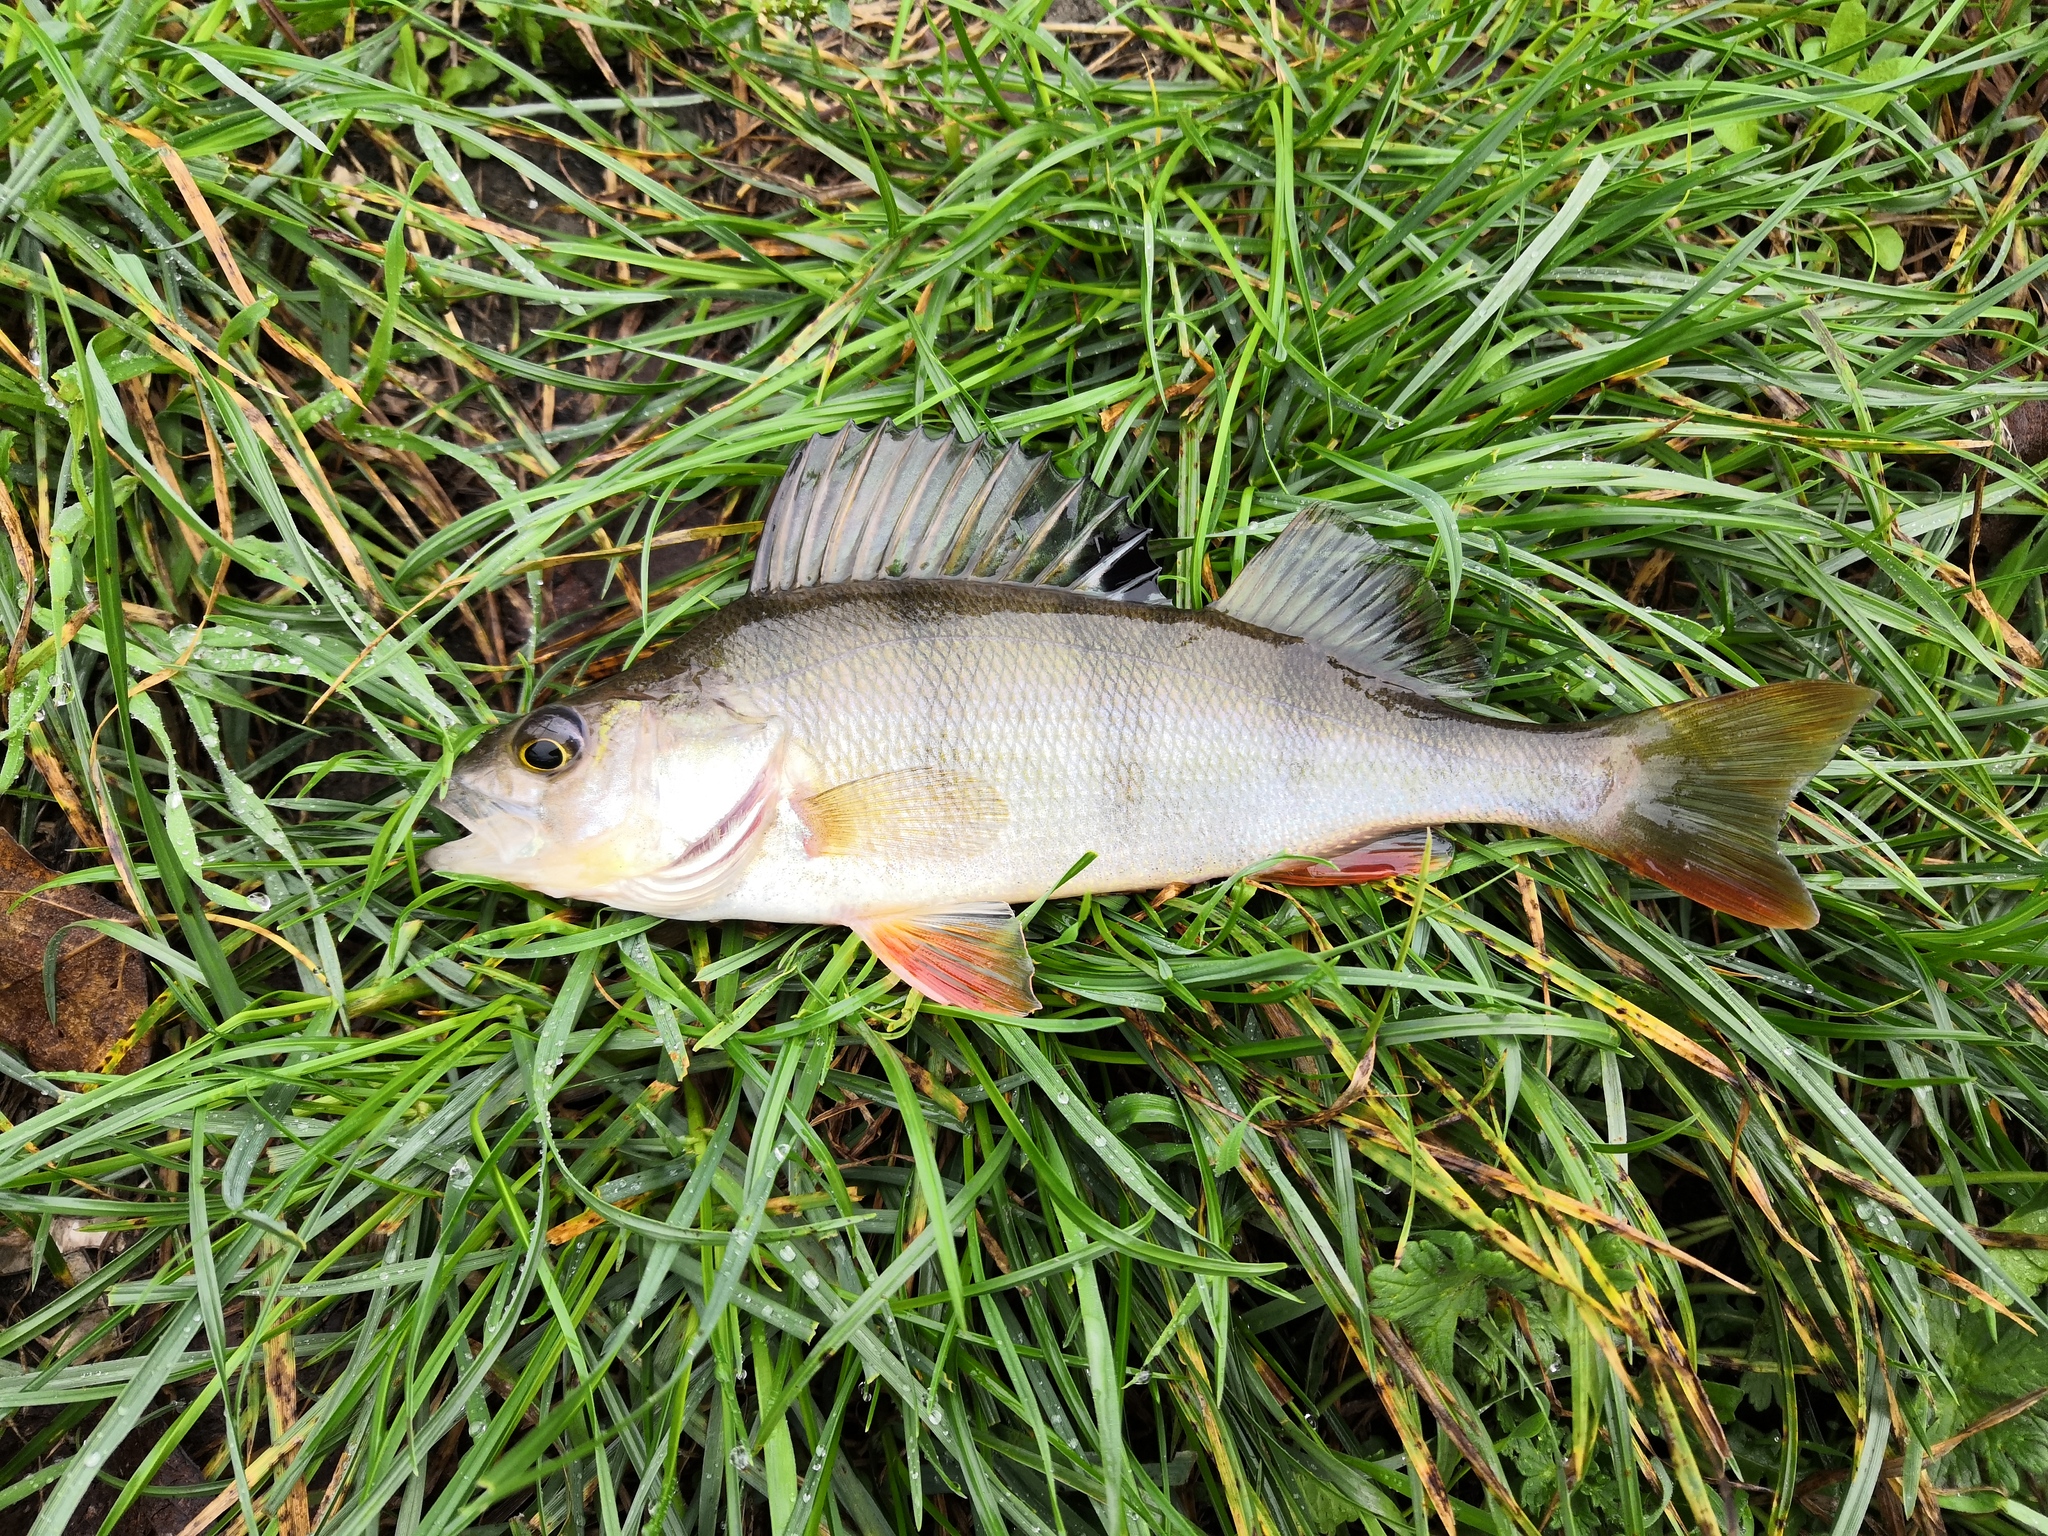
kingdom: Animalia
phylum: Chordata
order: Perciformes
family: Percidae
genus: Perca
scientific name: Perca fluviatilis
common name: Perch
